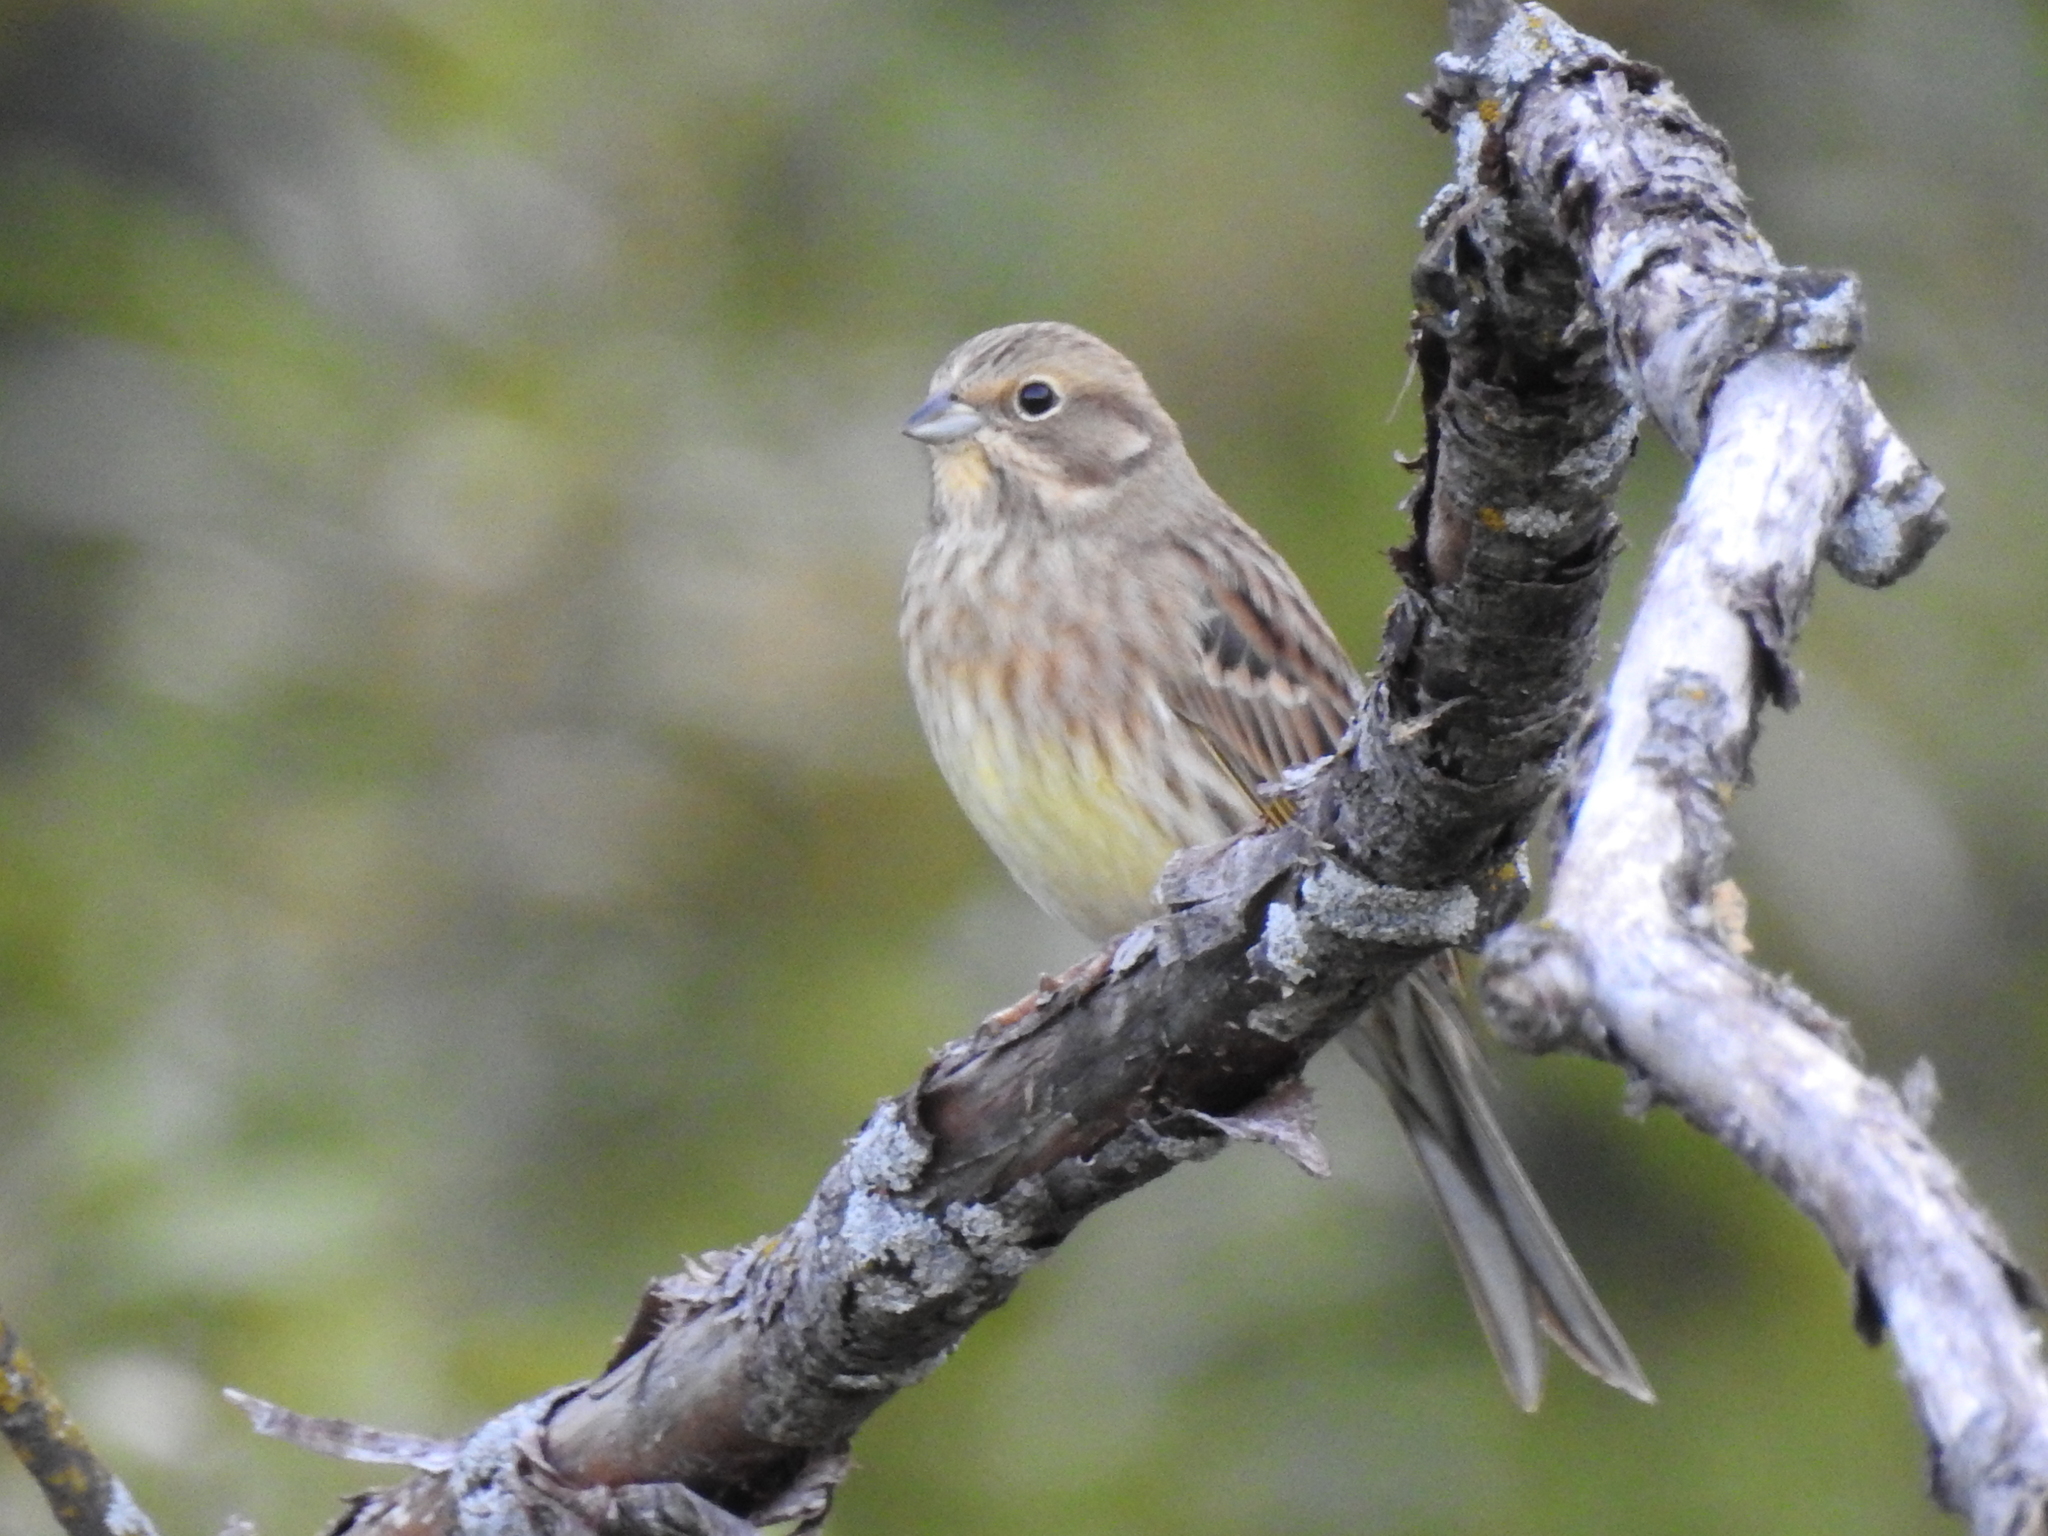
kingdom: Animalia
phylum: Chordata
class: Aves
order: Passeriformes
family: Emberizidae
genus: Emberiza
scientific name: Emberiza citrinella
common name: Yellowhammer
